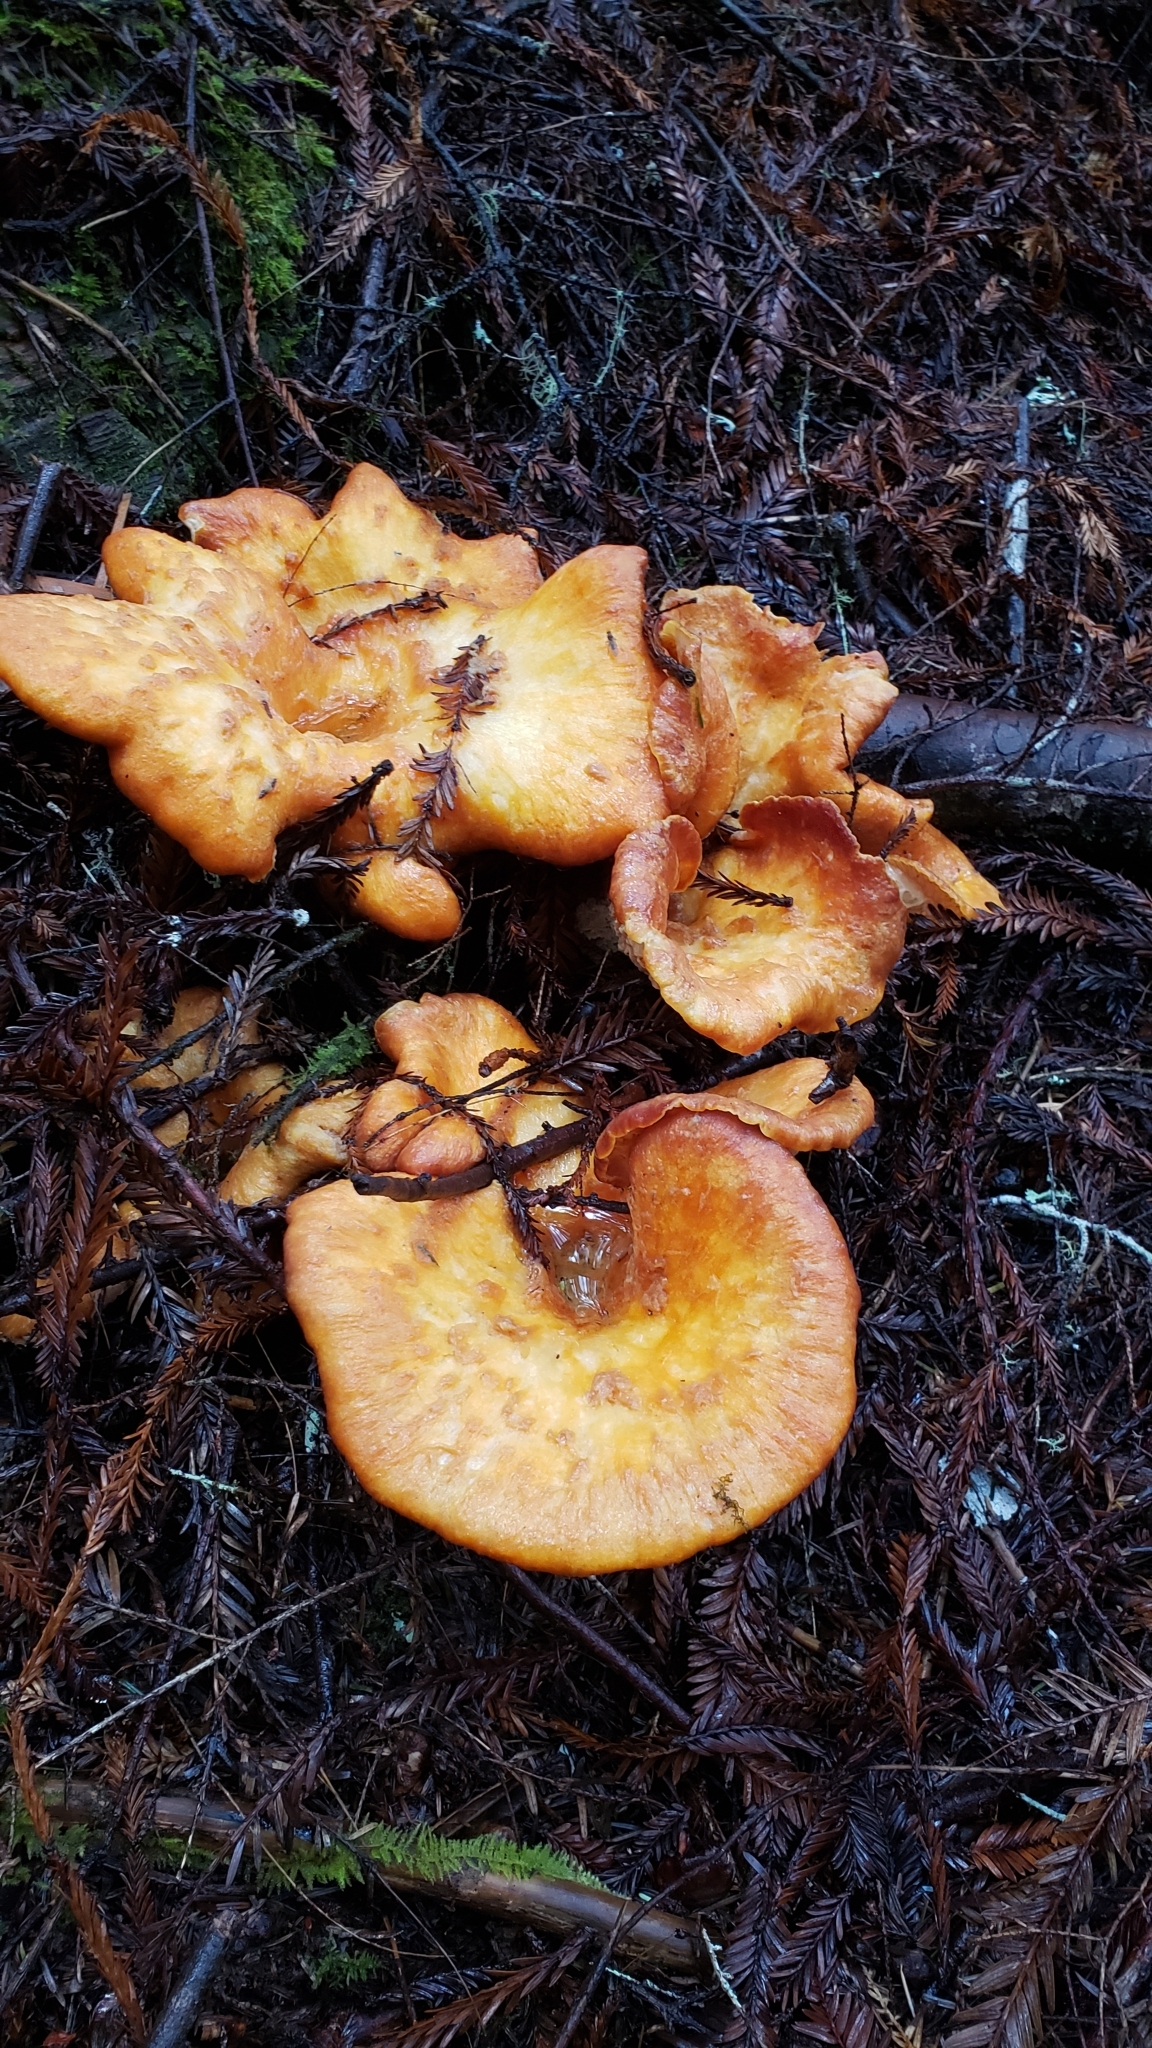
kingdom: Fungi
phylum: Basidiomycota
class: Agaricomycetes
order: Gomphales
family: Gomphaceae
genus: Turbinellus
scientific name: Turbinellus floccosus
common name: Scaly chanterelle
